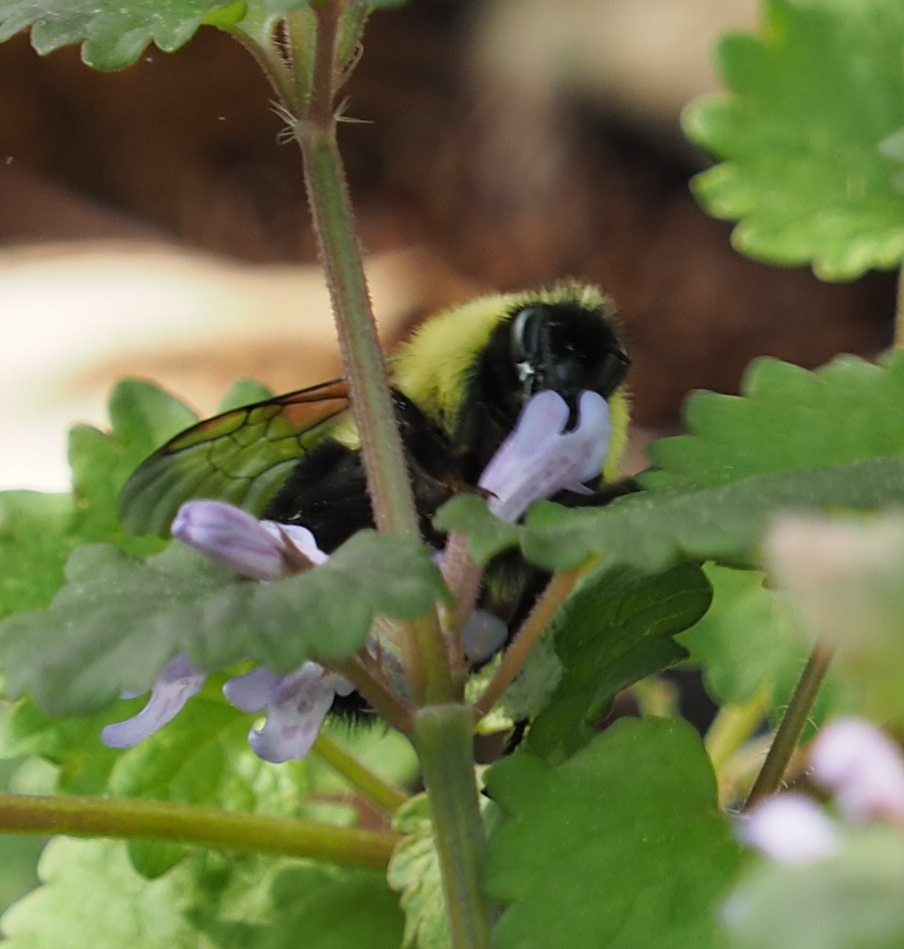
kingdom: Animalia
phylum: Arthropoda
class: Insecta
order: Hymenoptera
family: Apidae
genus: Bombus
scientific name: Bombus bimaculatus
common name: Two-spotted bumble bee
